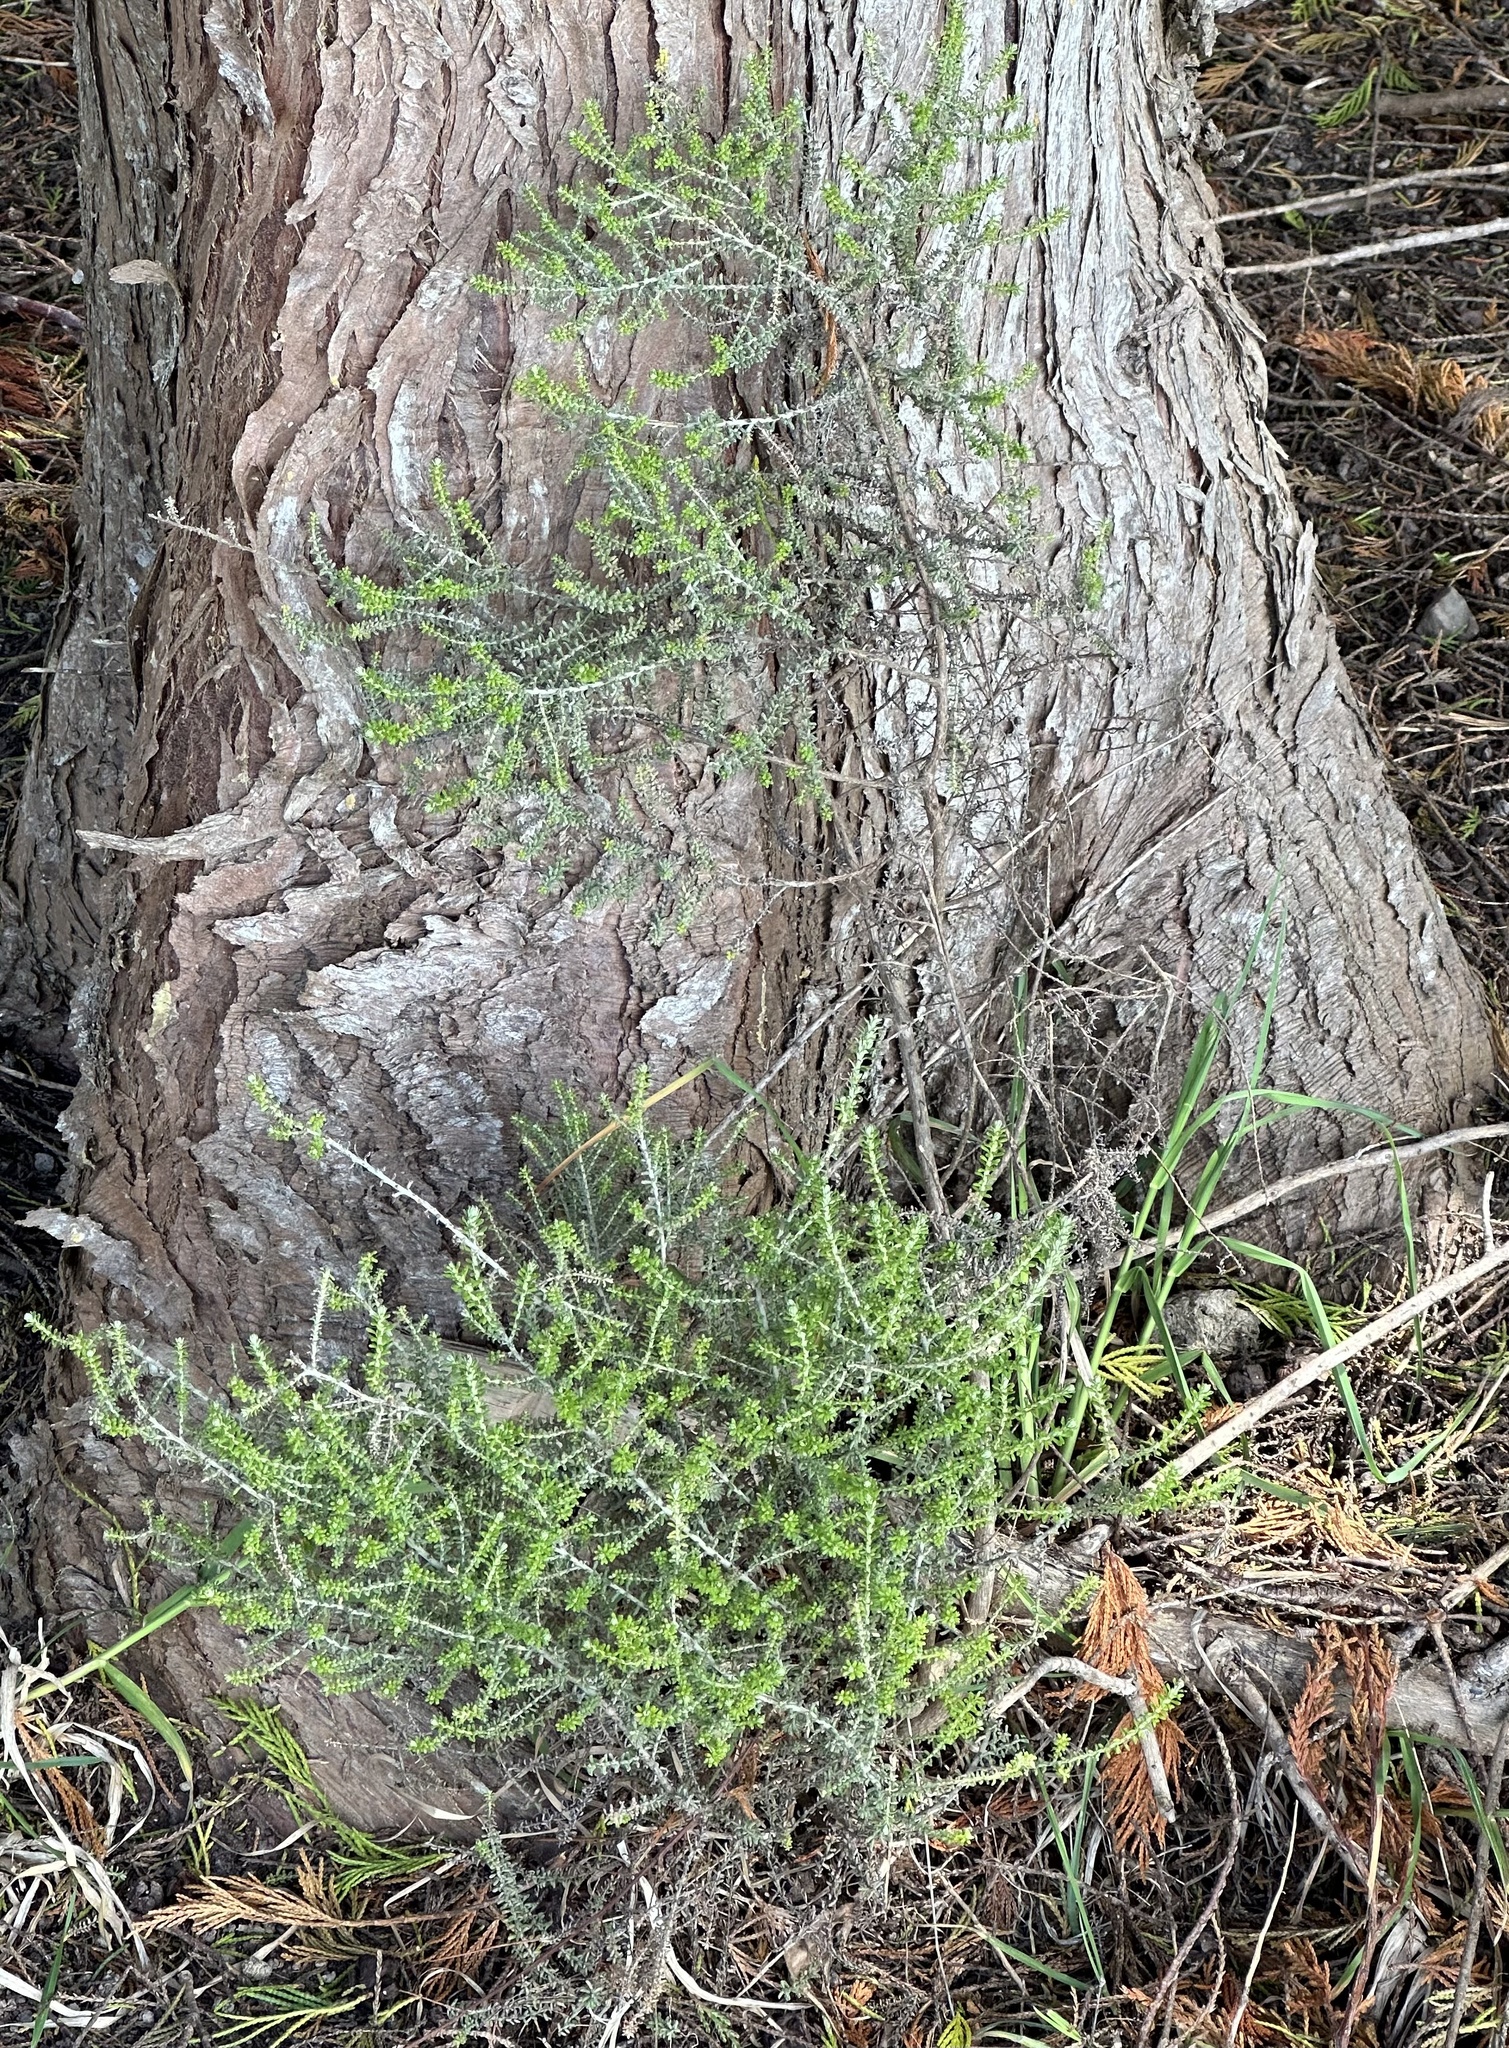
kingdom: Plantae
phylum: Tracheophyta
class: Magnoliopsida
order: Asterales
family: Asteraceae
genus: Ozothamnus
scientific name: Ozothamnus leptophyllus
